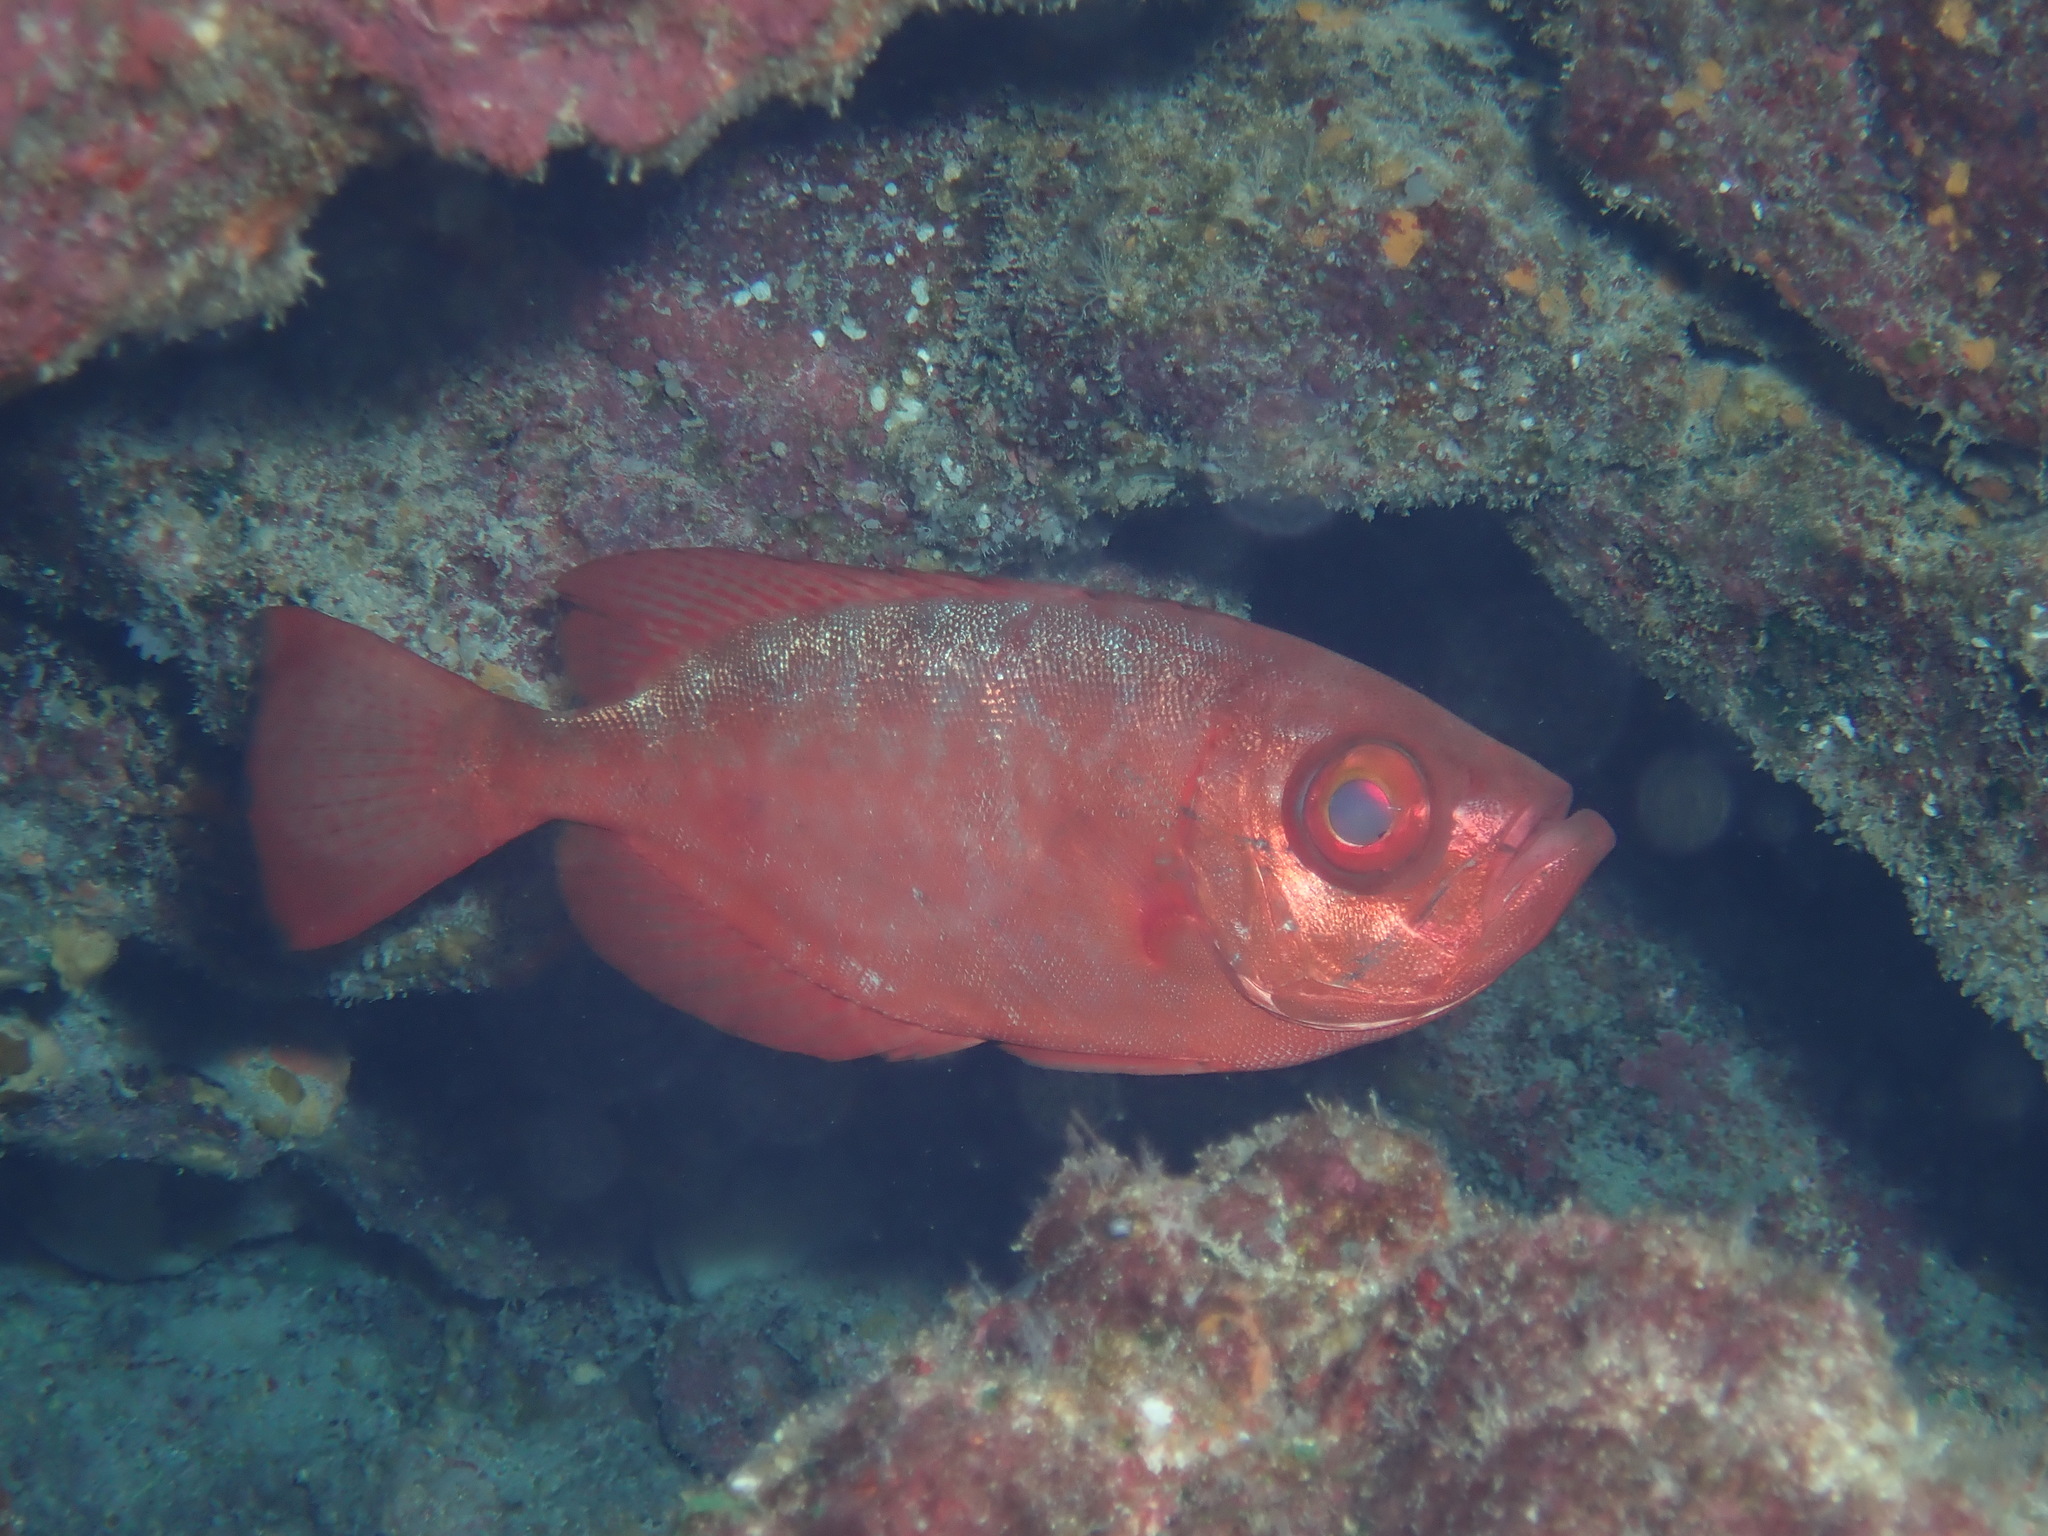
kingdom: Animalia
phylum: Chordata
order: Perciformes
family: Priacanthidae
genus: Heteropriacanthus
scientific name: Heteropriacanthus cruentatus
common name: Glasseye
